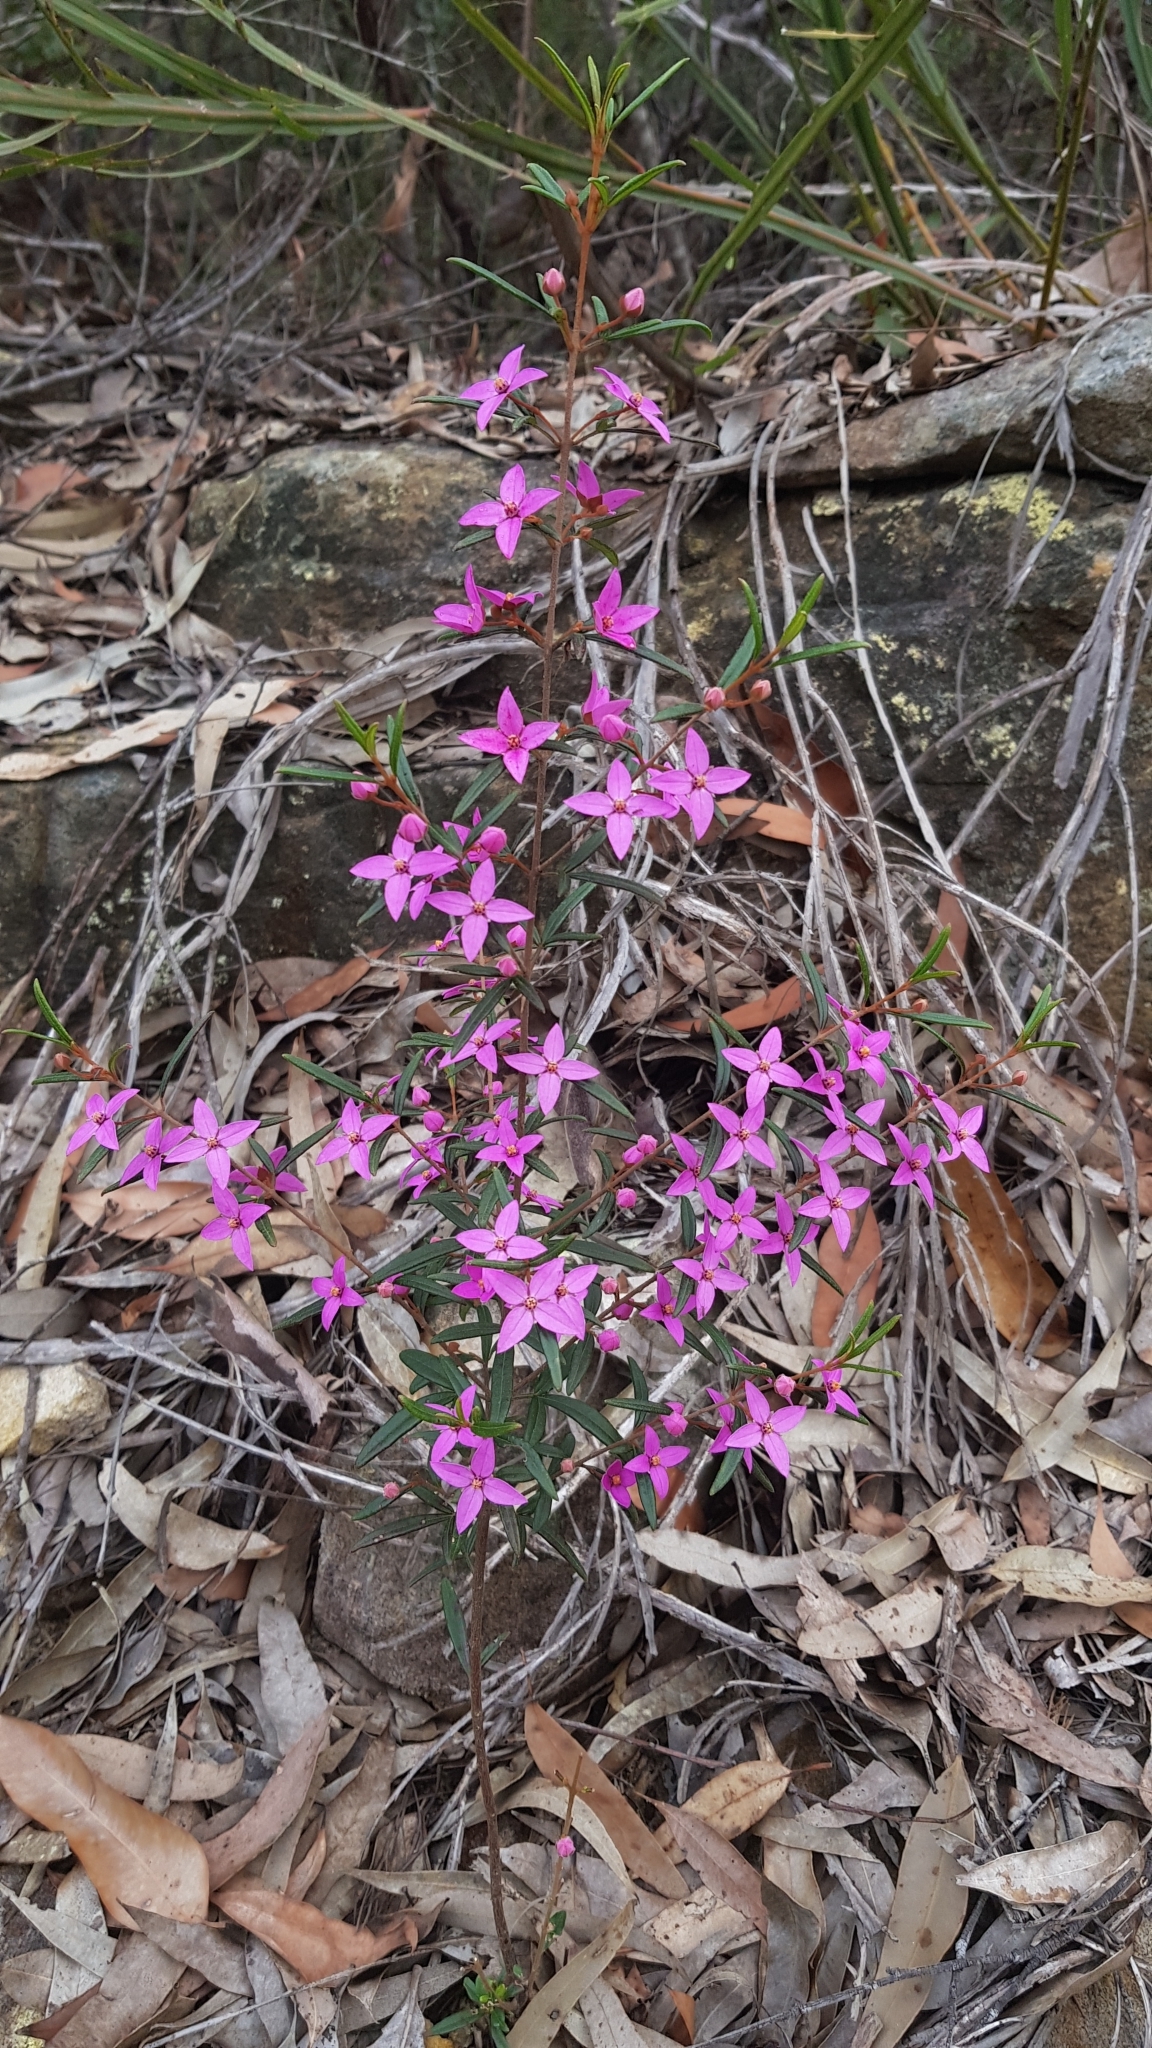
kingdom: Plantae
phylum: Tracheophyta
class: Magnoliopsida
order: Sapindales
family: Rutaceae
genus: Boronia
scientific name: Boronia ledifolia
